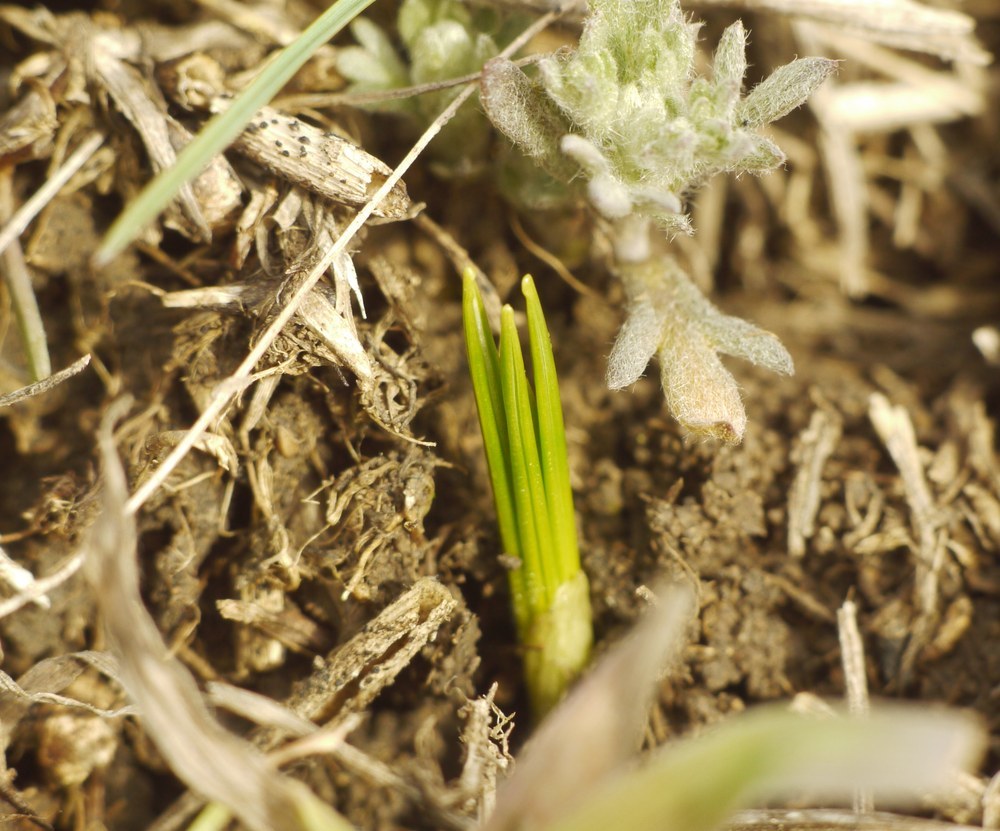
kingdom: Plantae
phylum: Tracheophyta
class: Liliopsida
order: Asparagales
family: Iridaceae
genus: Crocus
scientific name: Crocus reticulatus
